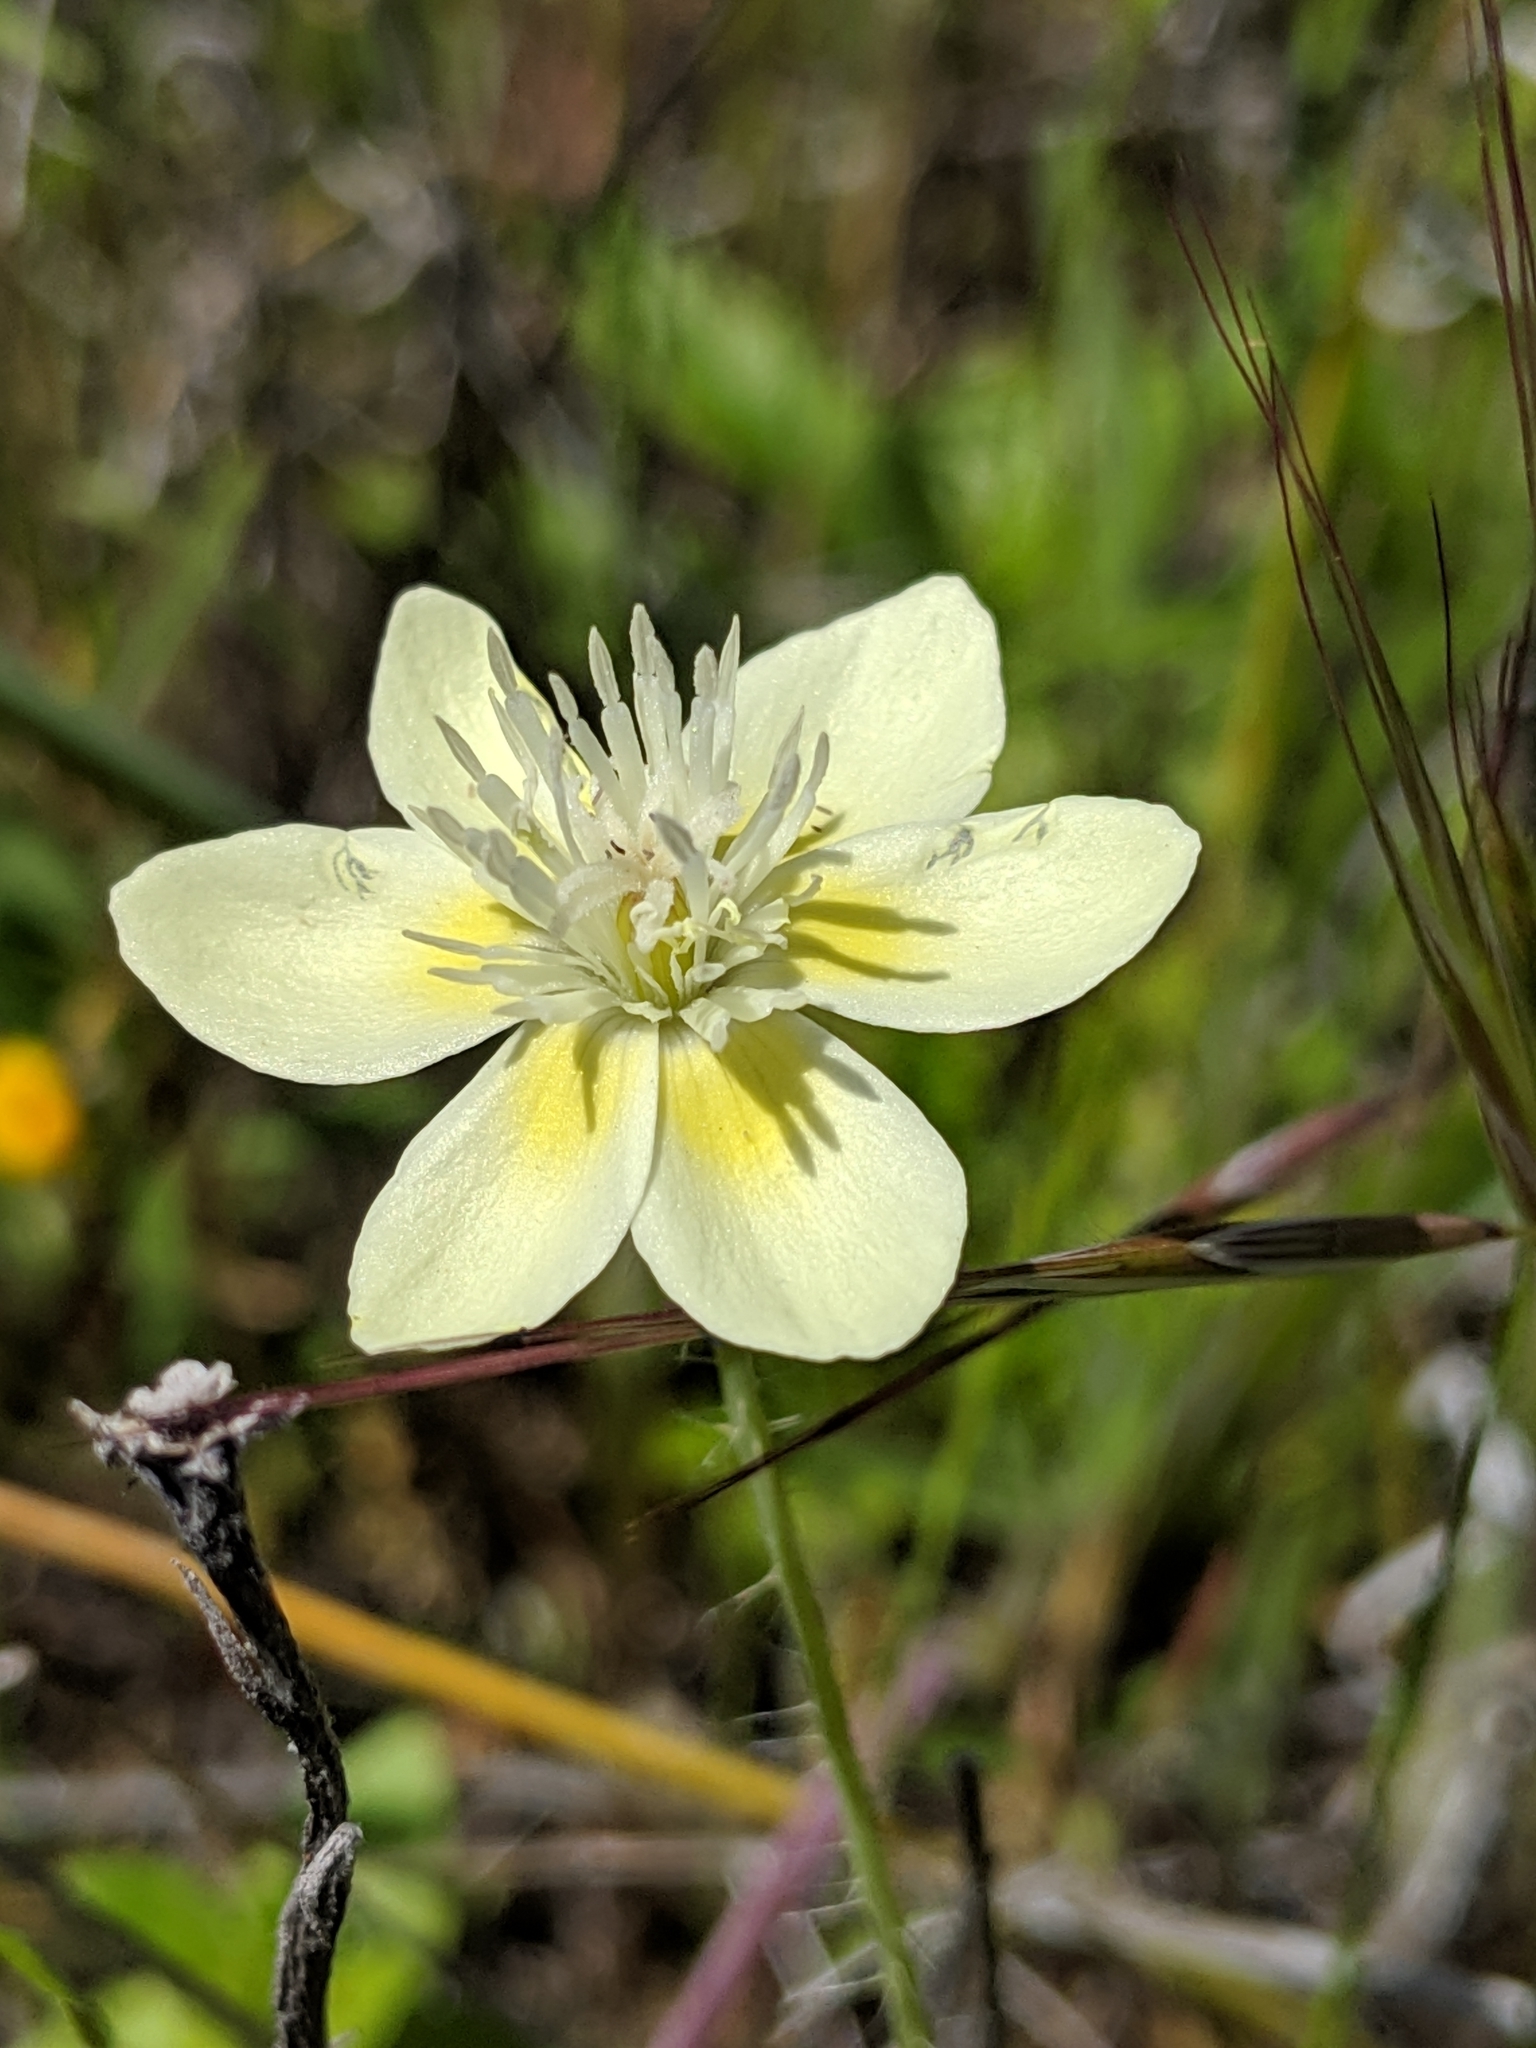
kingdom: Plantae
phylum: Tracheophyta
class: Magnoliopsida
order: Ranunculales
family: Papaveraceae
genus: Platystemon
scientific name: Platystemon californicus
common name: Cream-cups
